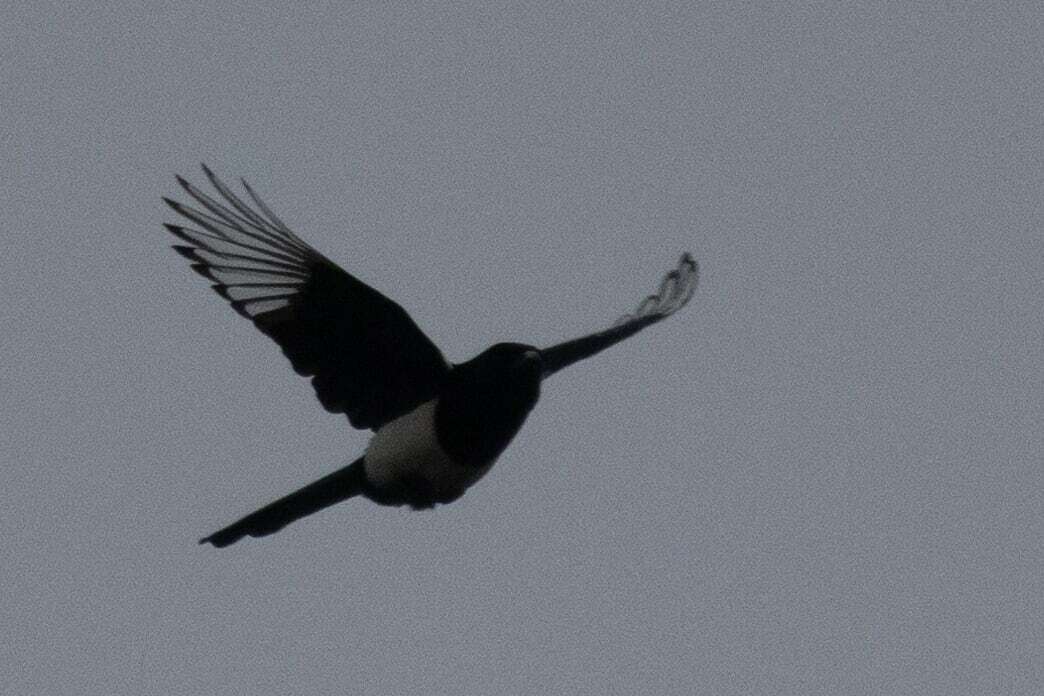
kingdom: Animalia
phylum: Chordata
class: Aves
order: Passeriformes
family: Corvidae
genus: Pica
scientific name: Pica pica
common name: Eurasian magpie
